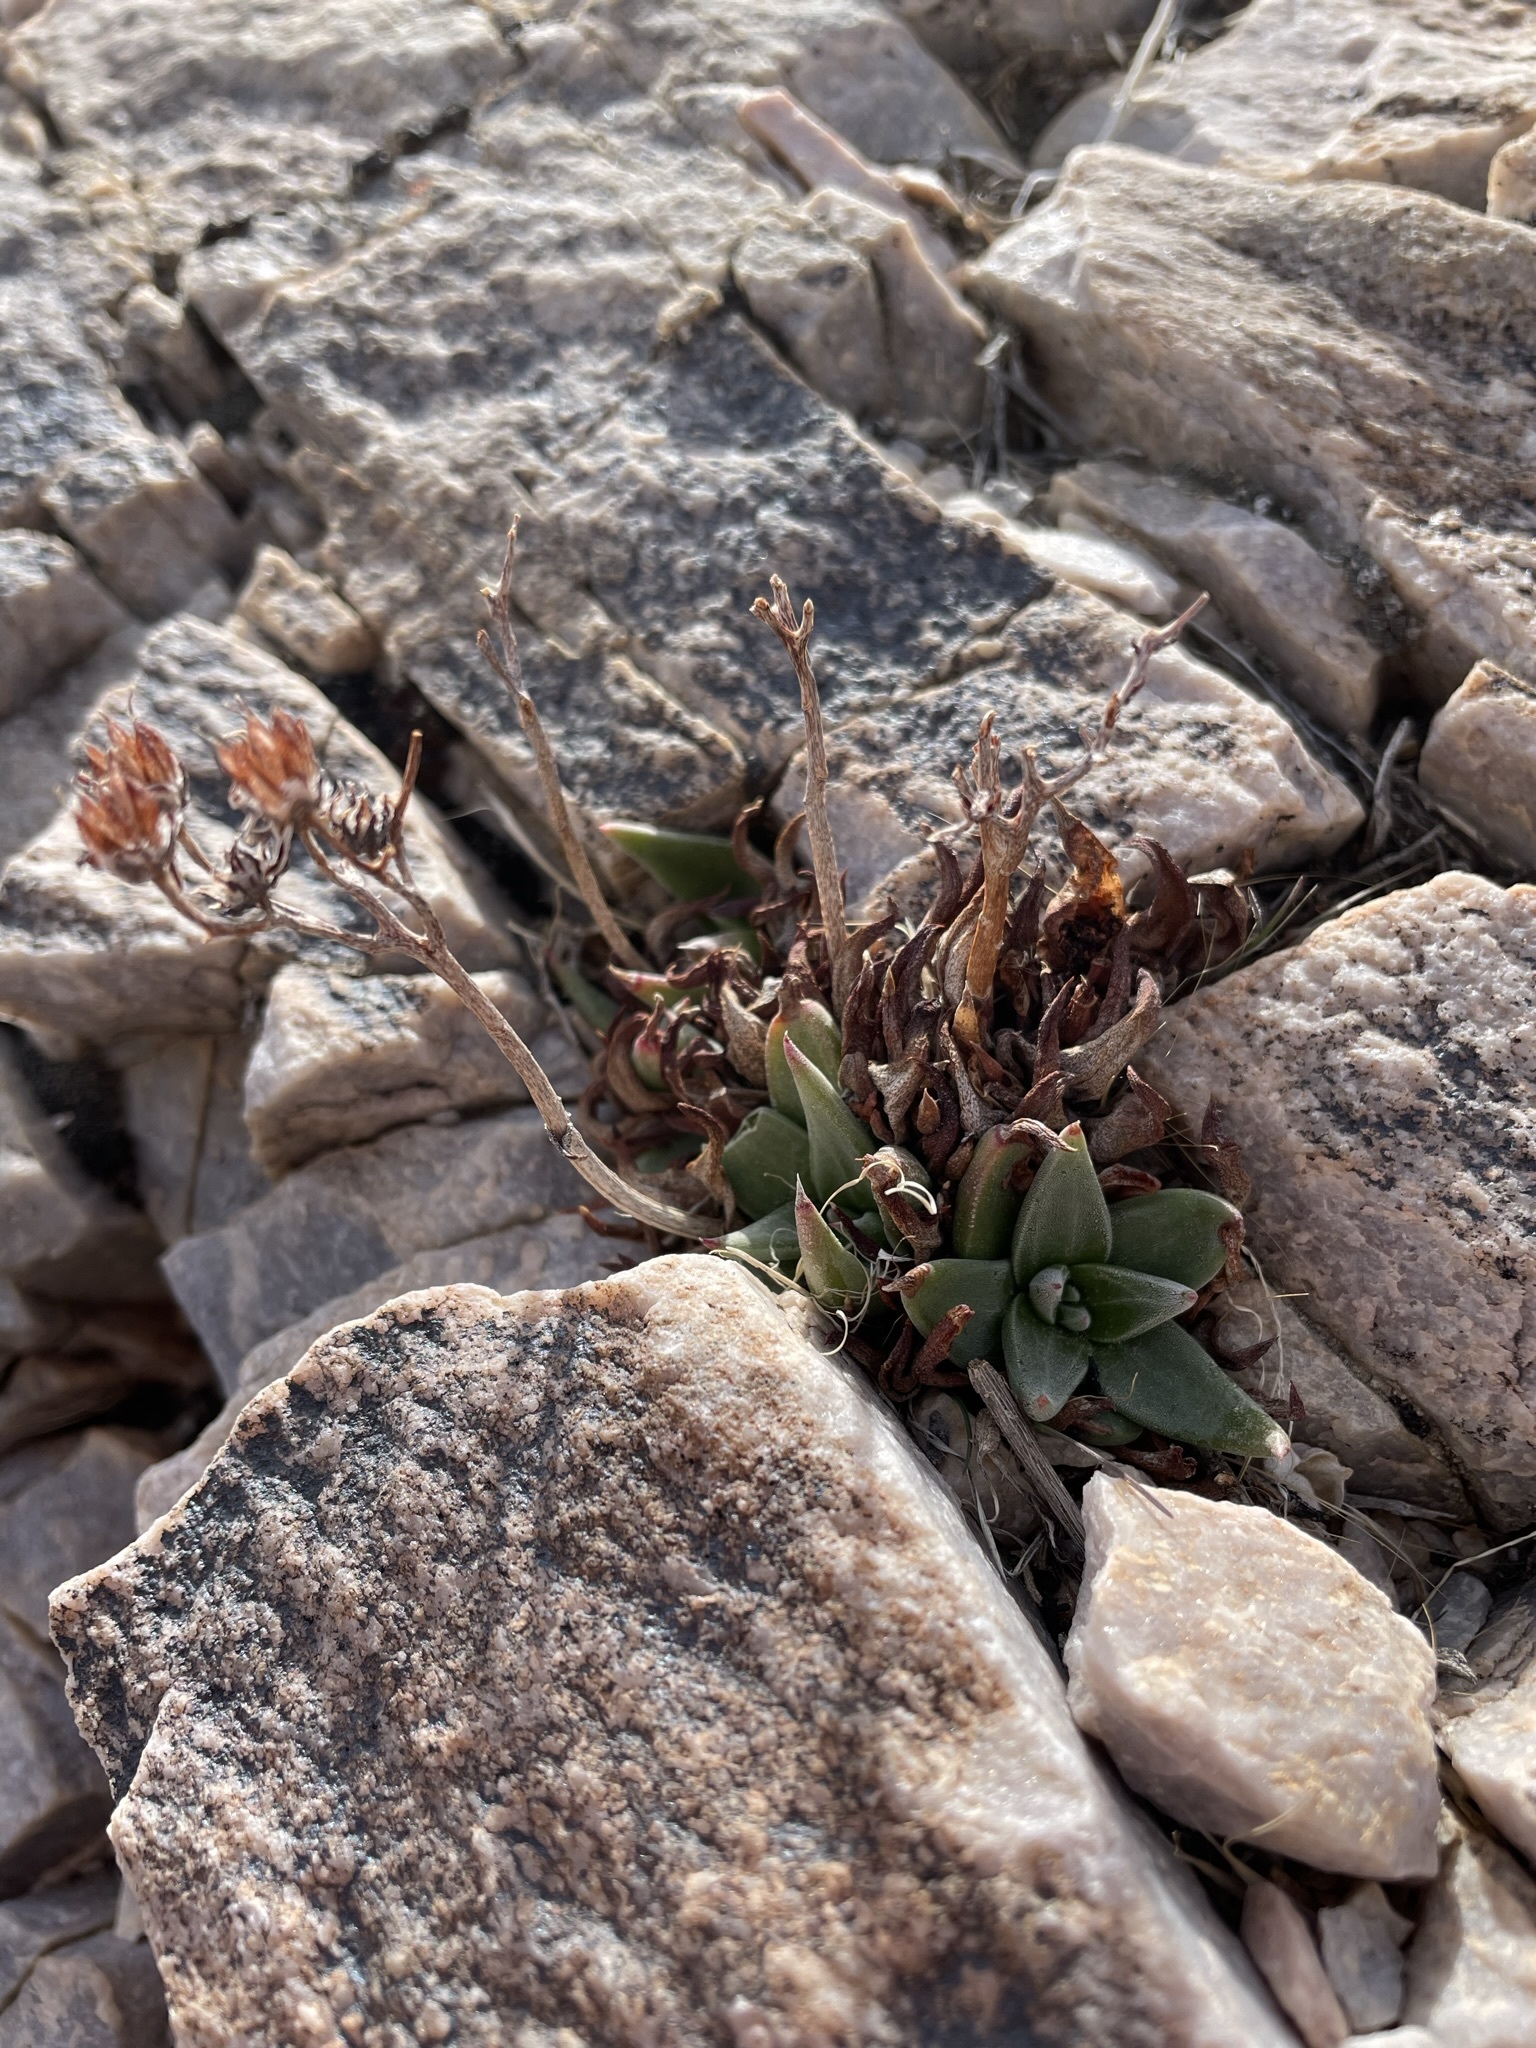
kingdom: Plantae
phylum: Tracheophyta
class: Magnoliopsida
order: Saxifragales
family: Crassulaceae
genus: Dudleya
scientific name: Dudleya saxosa
